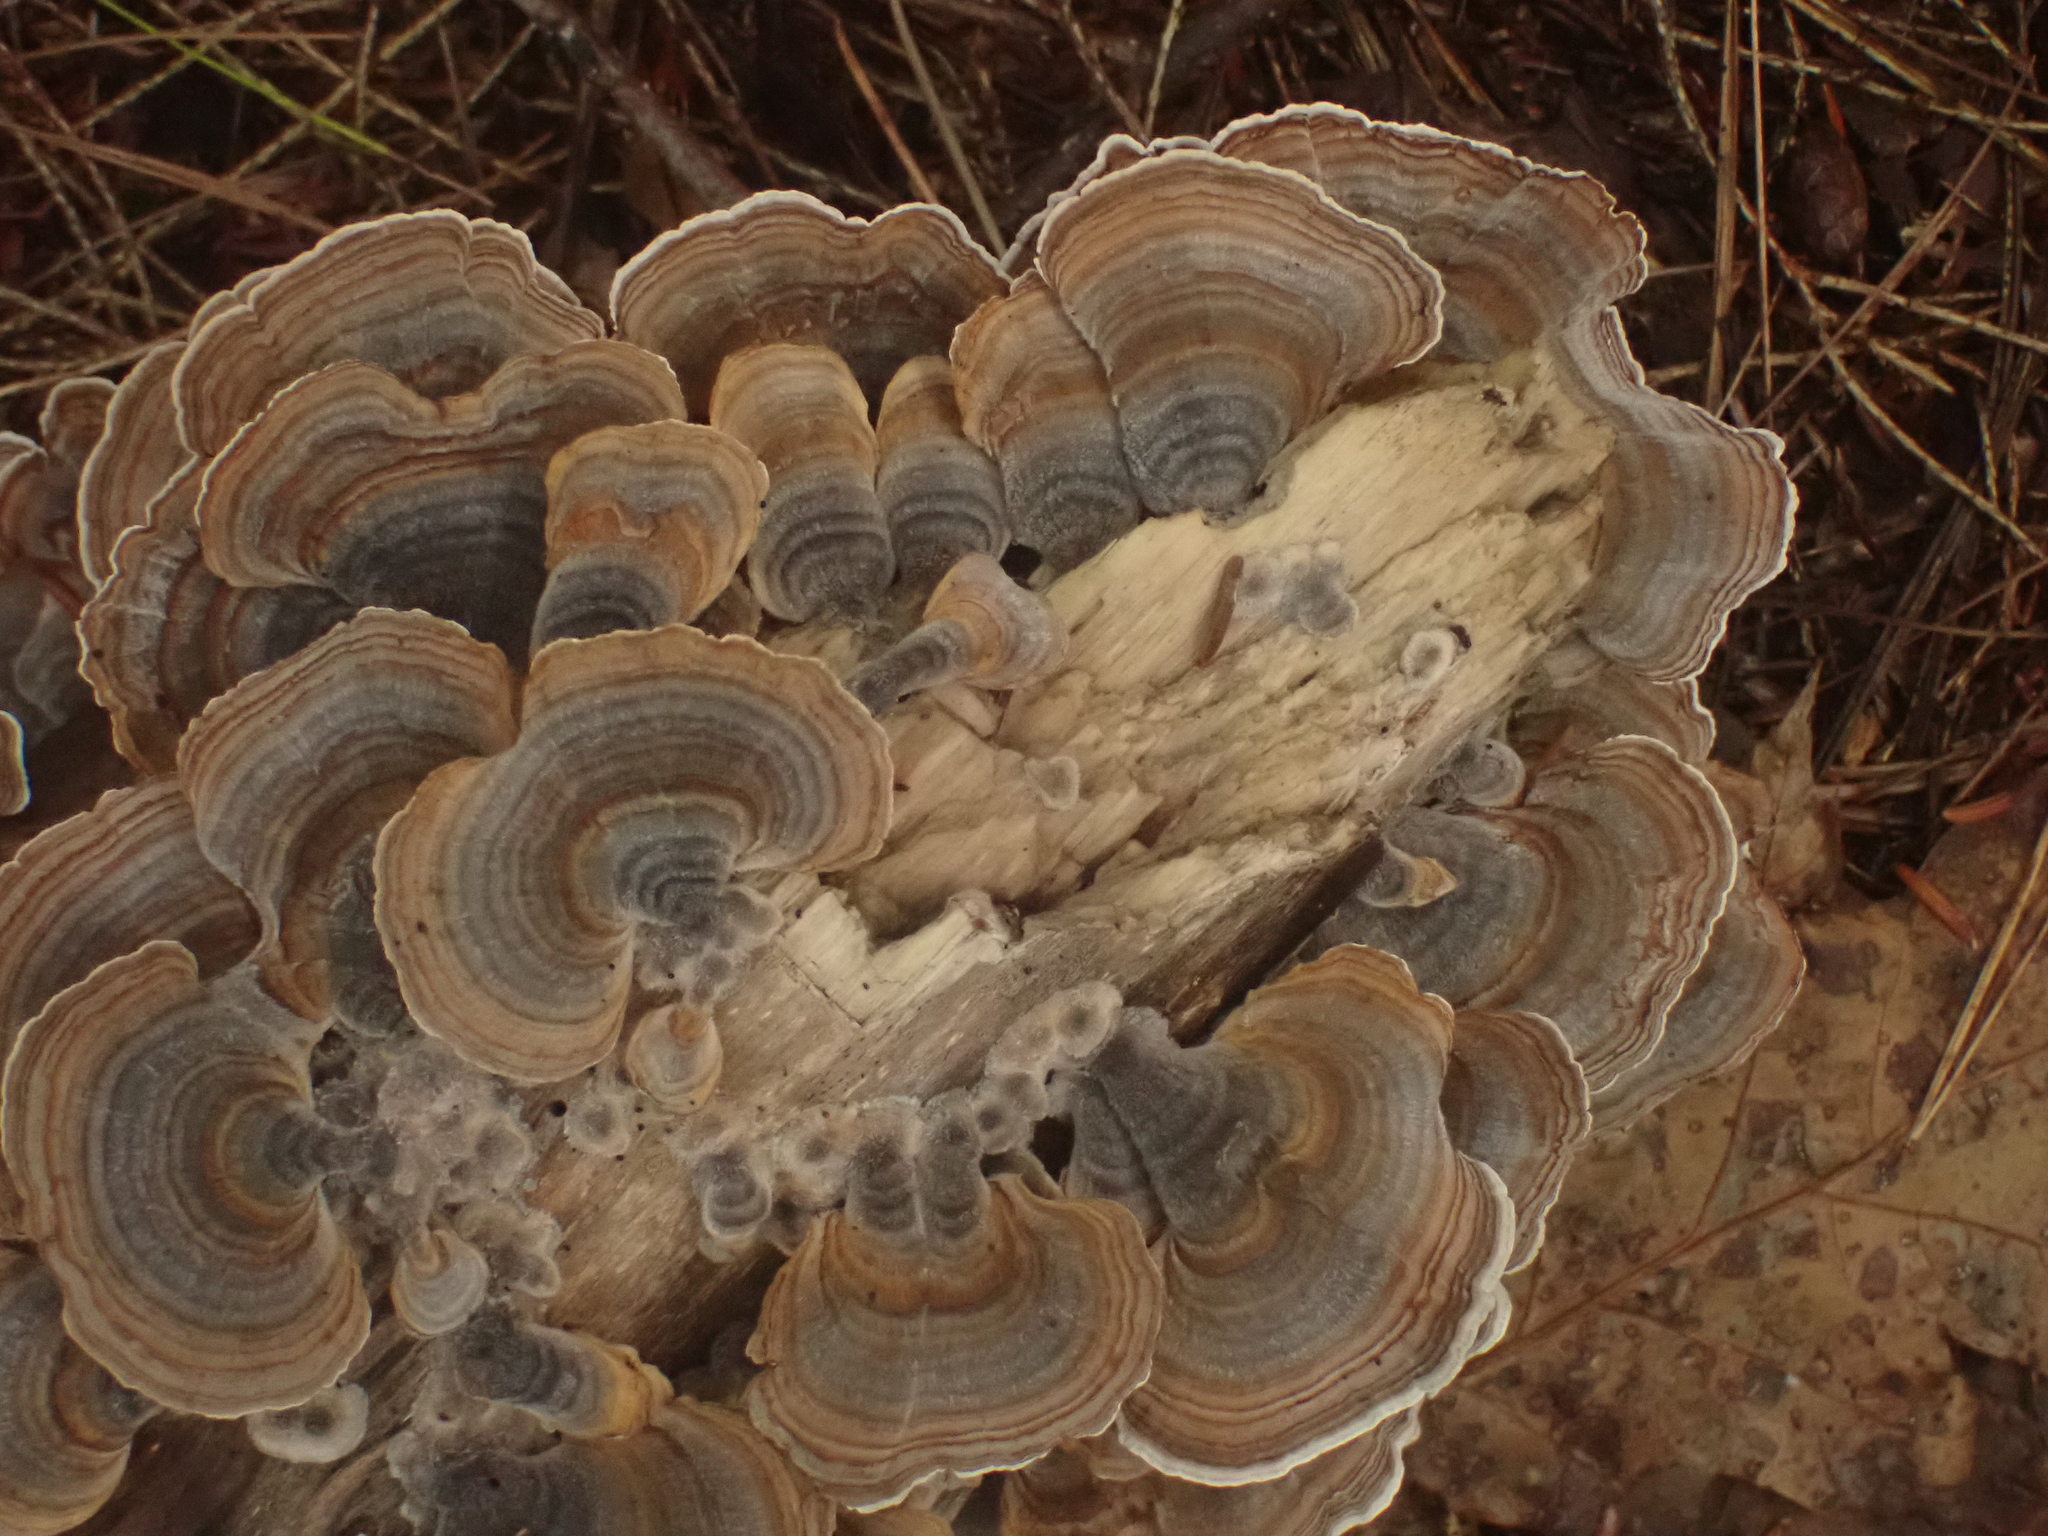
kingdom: Fungi
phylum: Basidiomycota
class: Agaricomycetes
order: Polyporales
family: Polyporaceae
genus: Trametes
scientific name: Trametes versicolor
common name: Turkeytail
